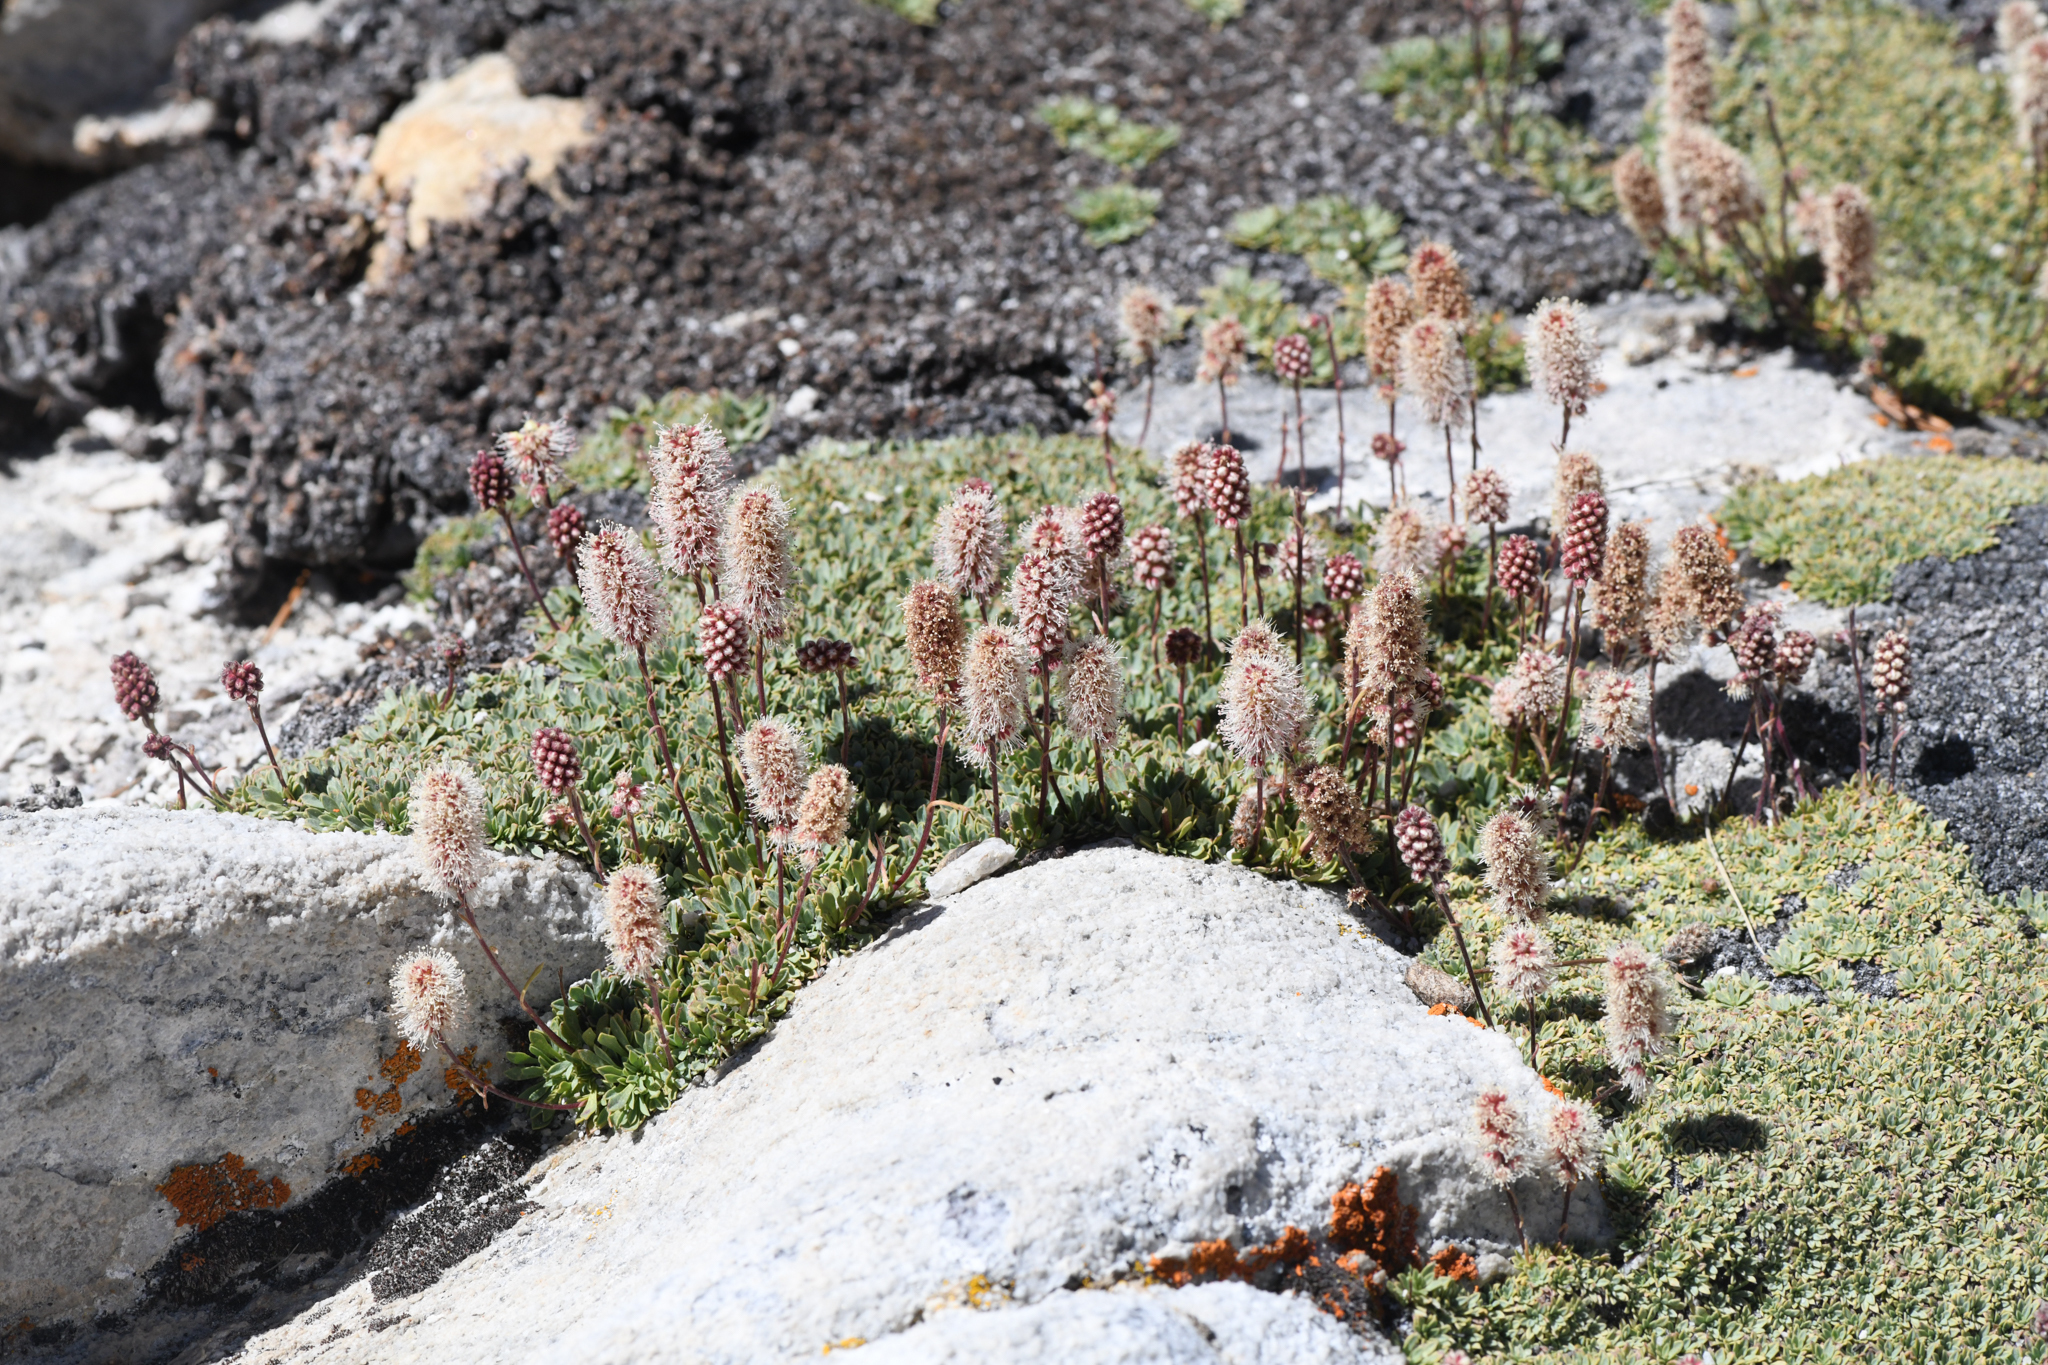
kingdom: Plantae
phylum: Tracheophyta
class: Magnoliopsida
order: Rosales
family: Rosaceae
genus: Petrophytum
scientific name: Petrophytum caespitosum
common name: Mat rockspirea
